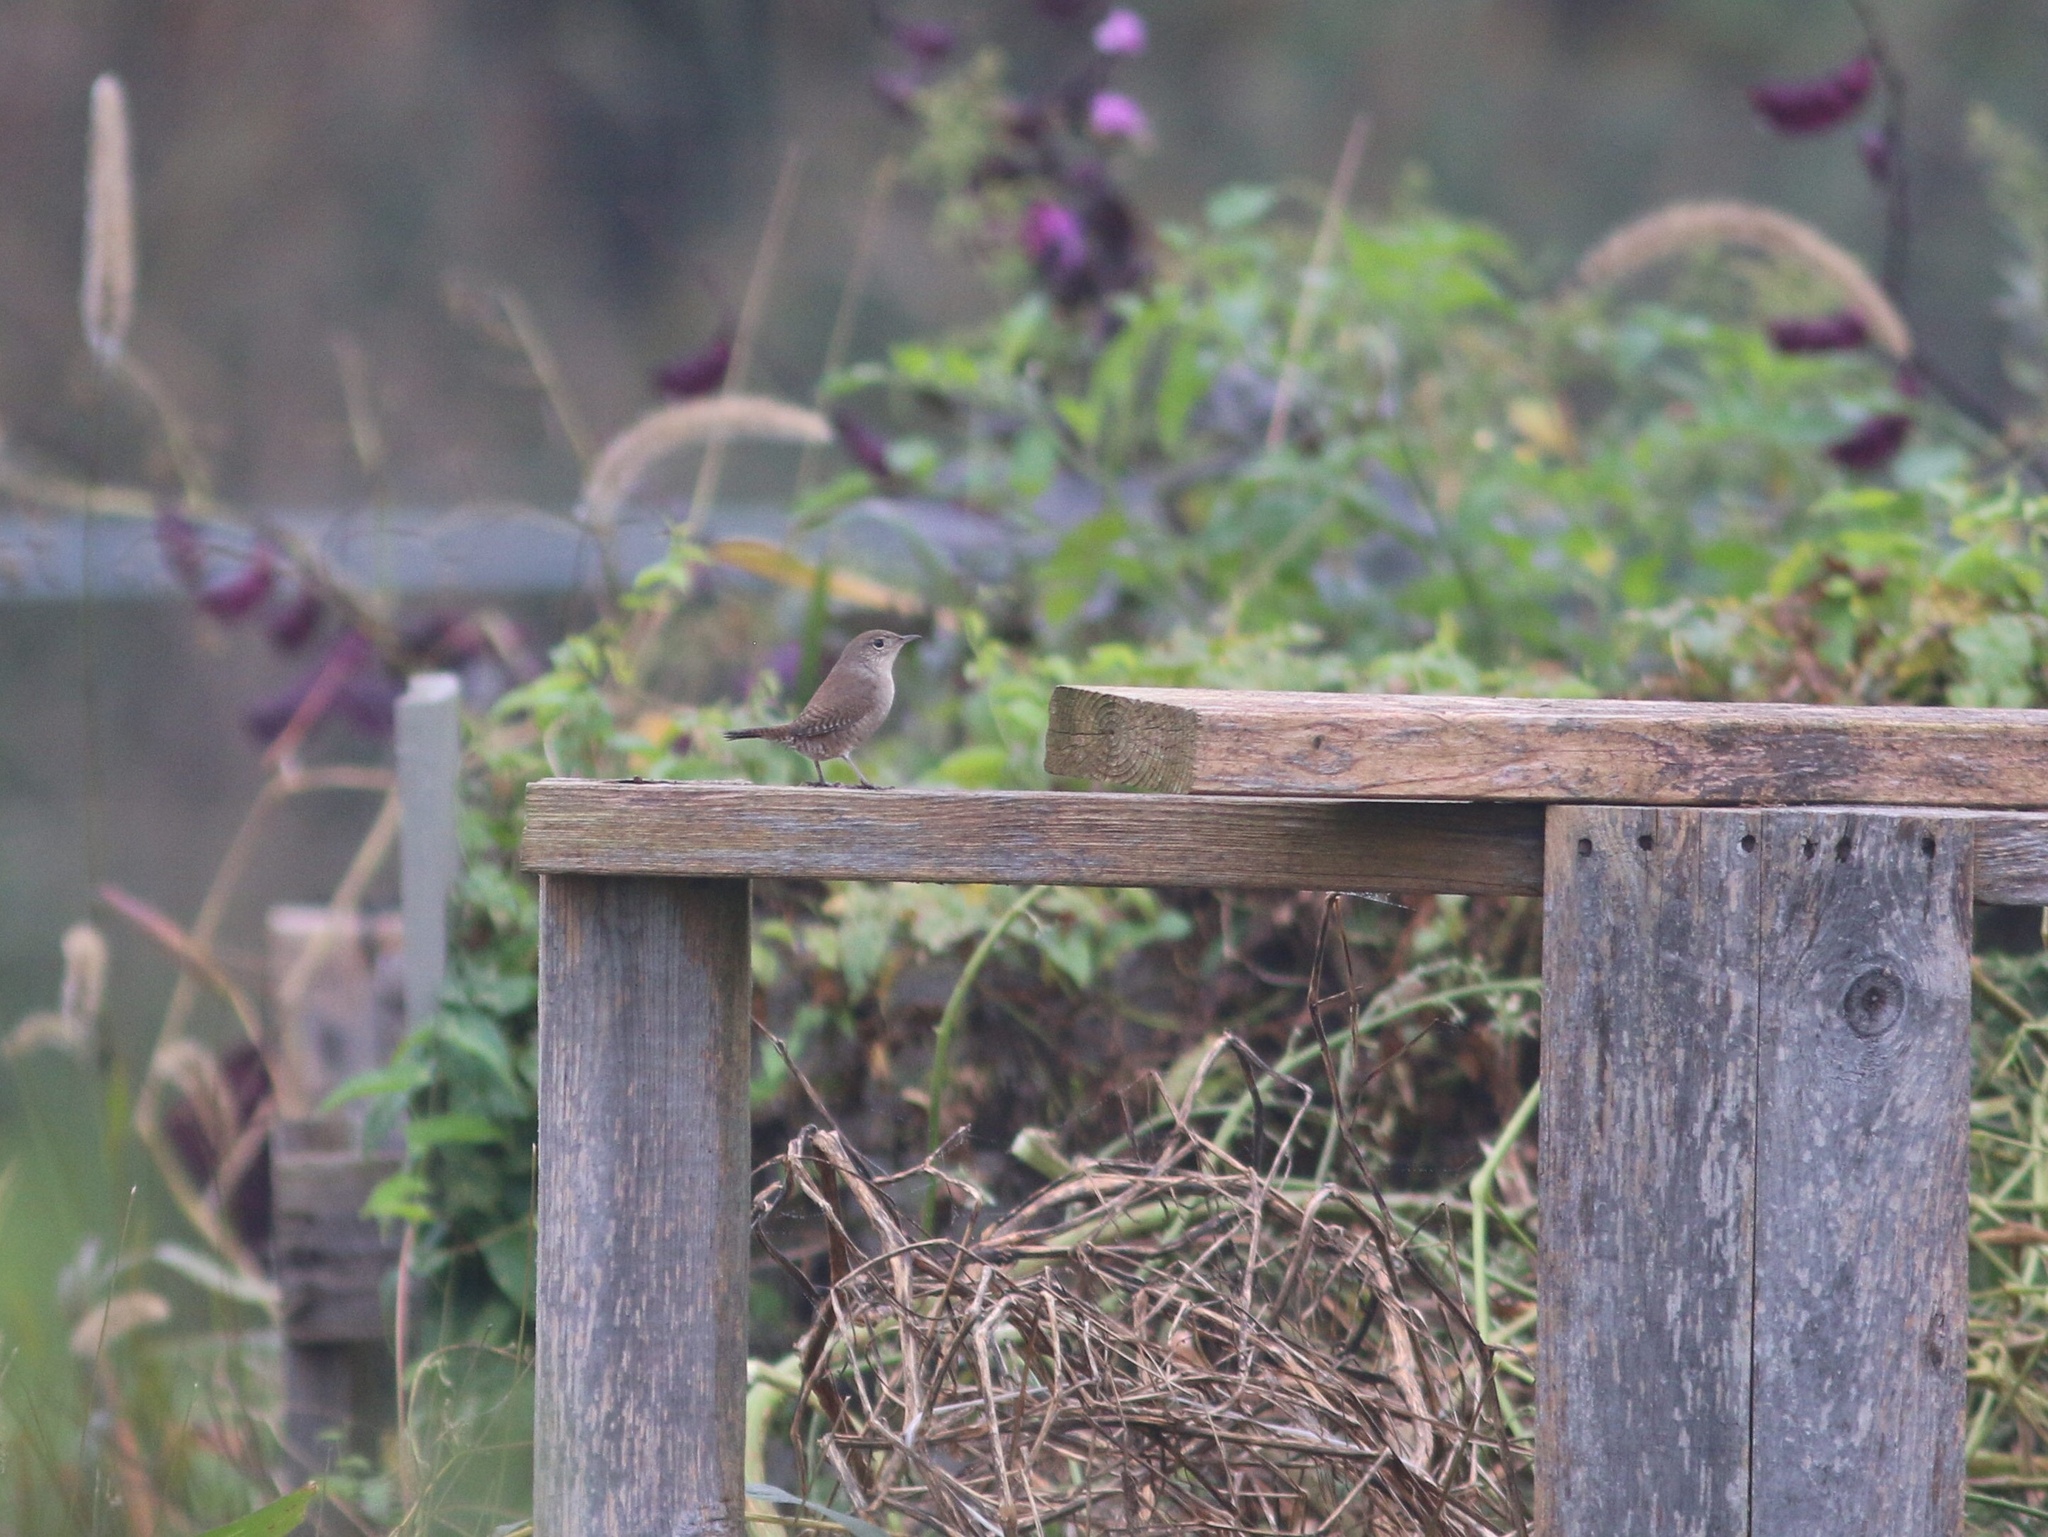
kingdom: Animalia
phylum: Chordata
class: Aves
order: Passeriformes
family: Troglodytidae
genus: Troglodytes
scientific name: Troglodytes aedon
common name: House wren
